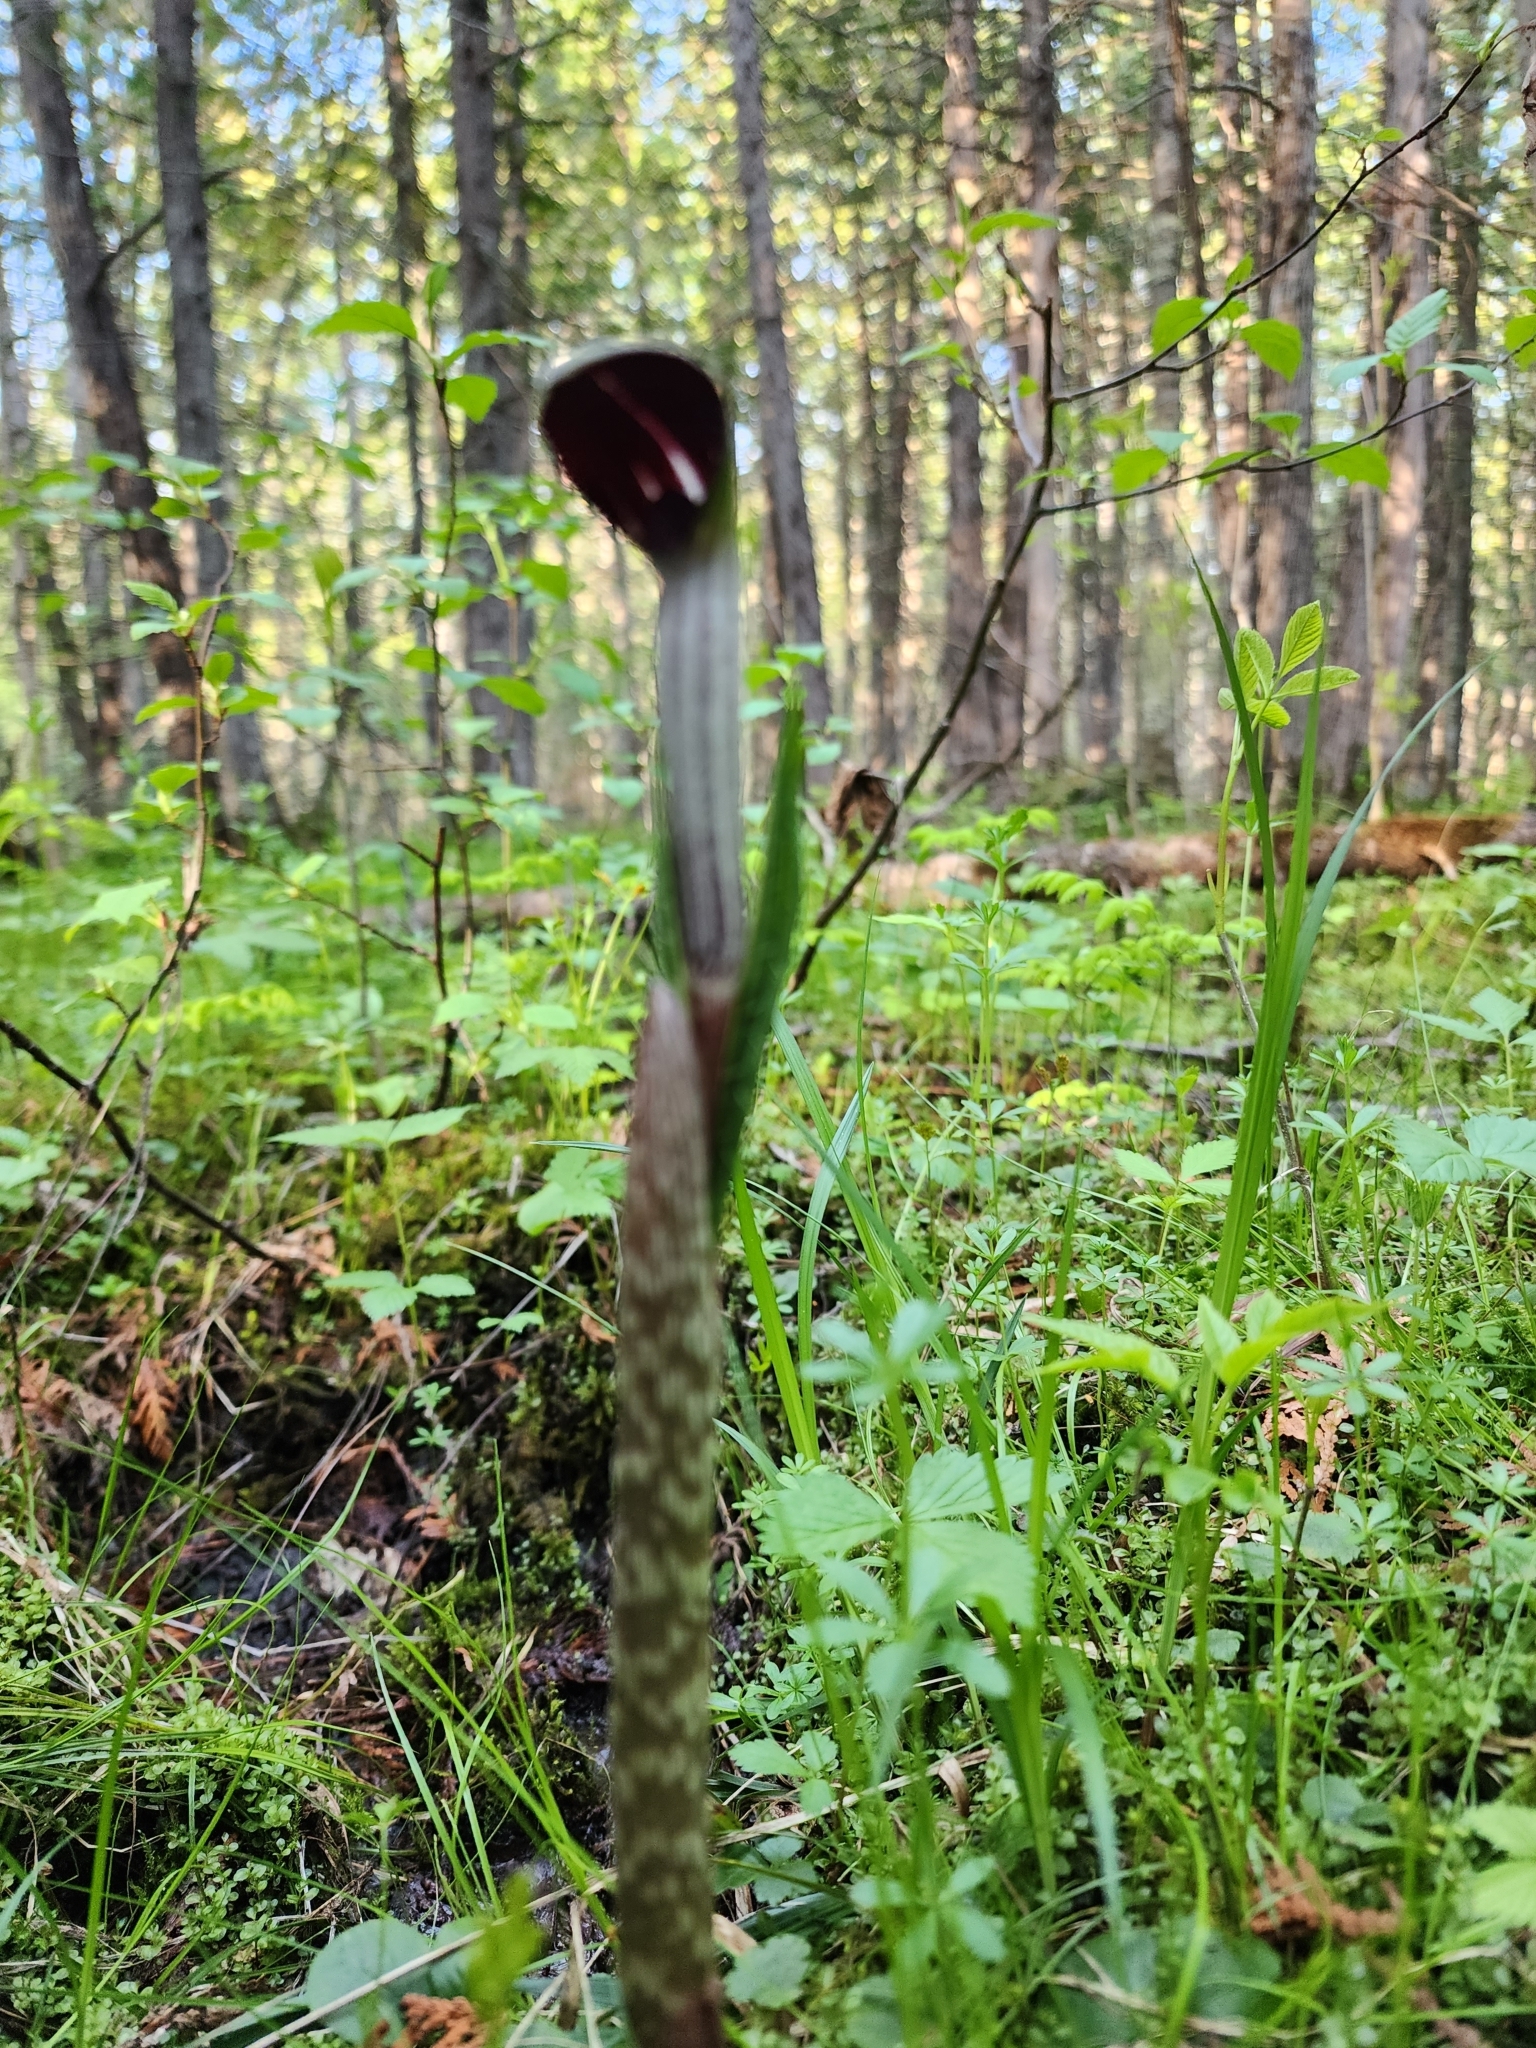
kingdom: Plantae
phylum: Tracheophyta
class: Liliopsida
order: Alismatales
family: Araceae
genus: Arisaema
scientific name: Arisaema triphyllum
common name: Jack-in-the-pulpit
